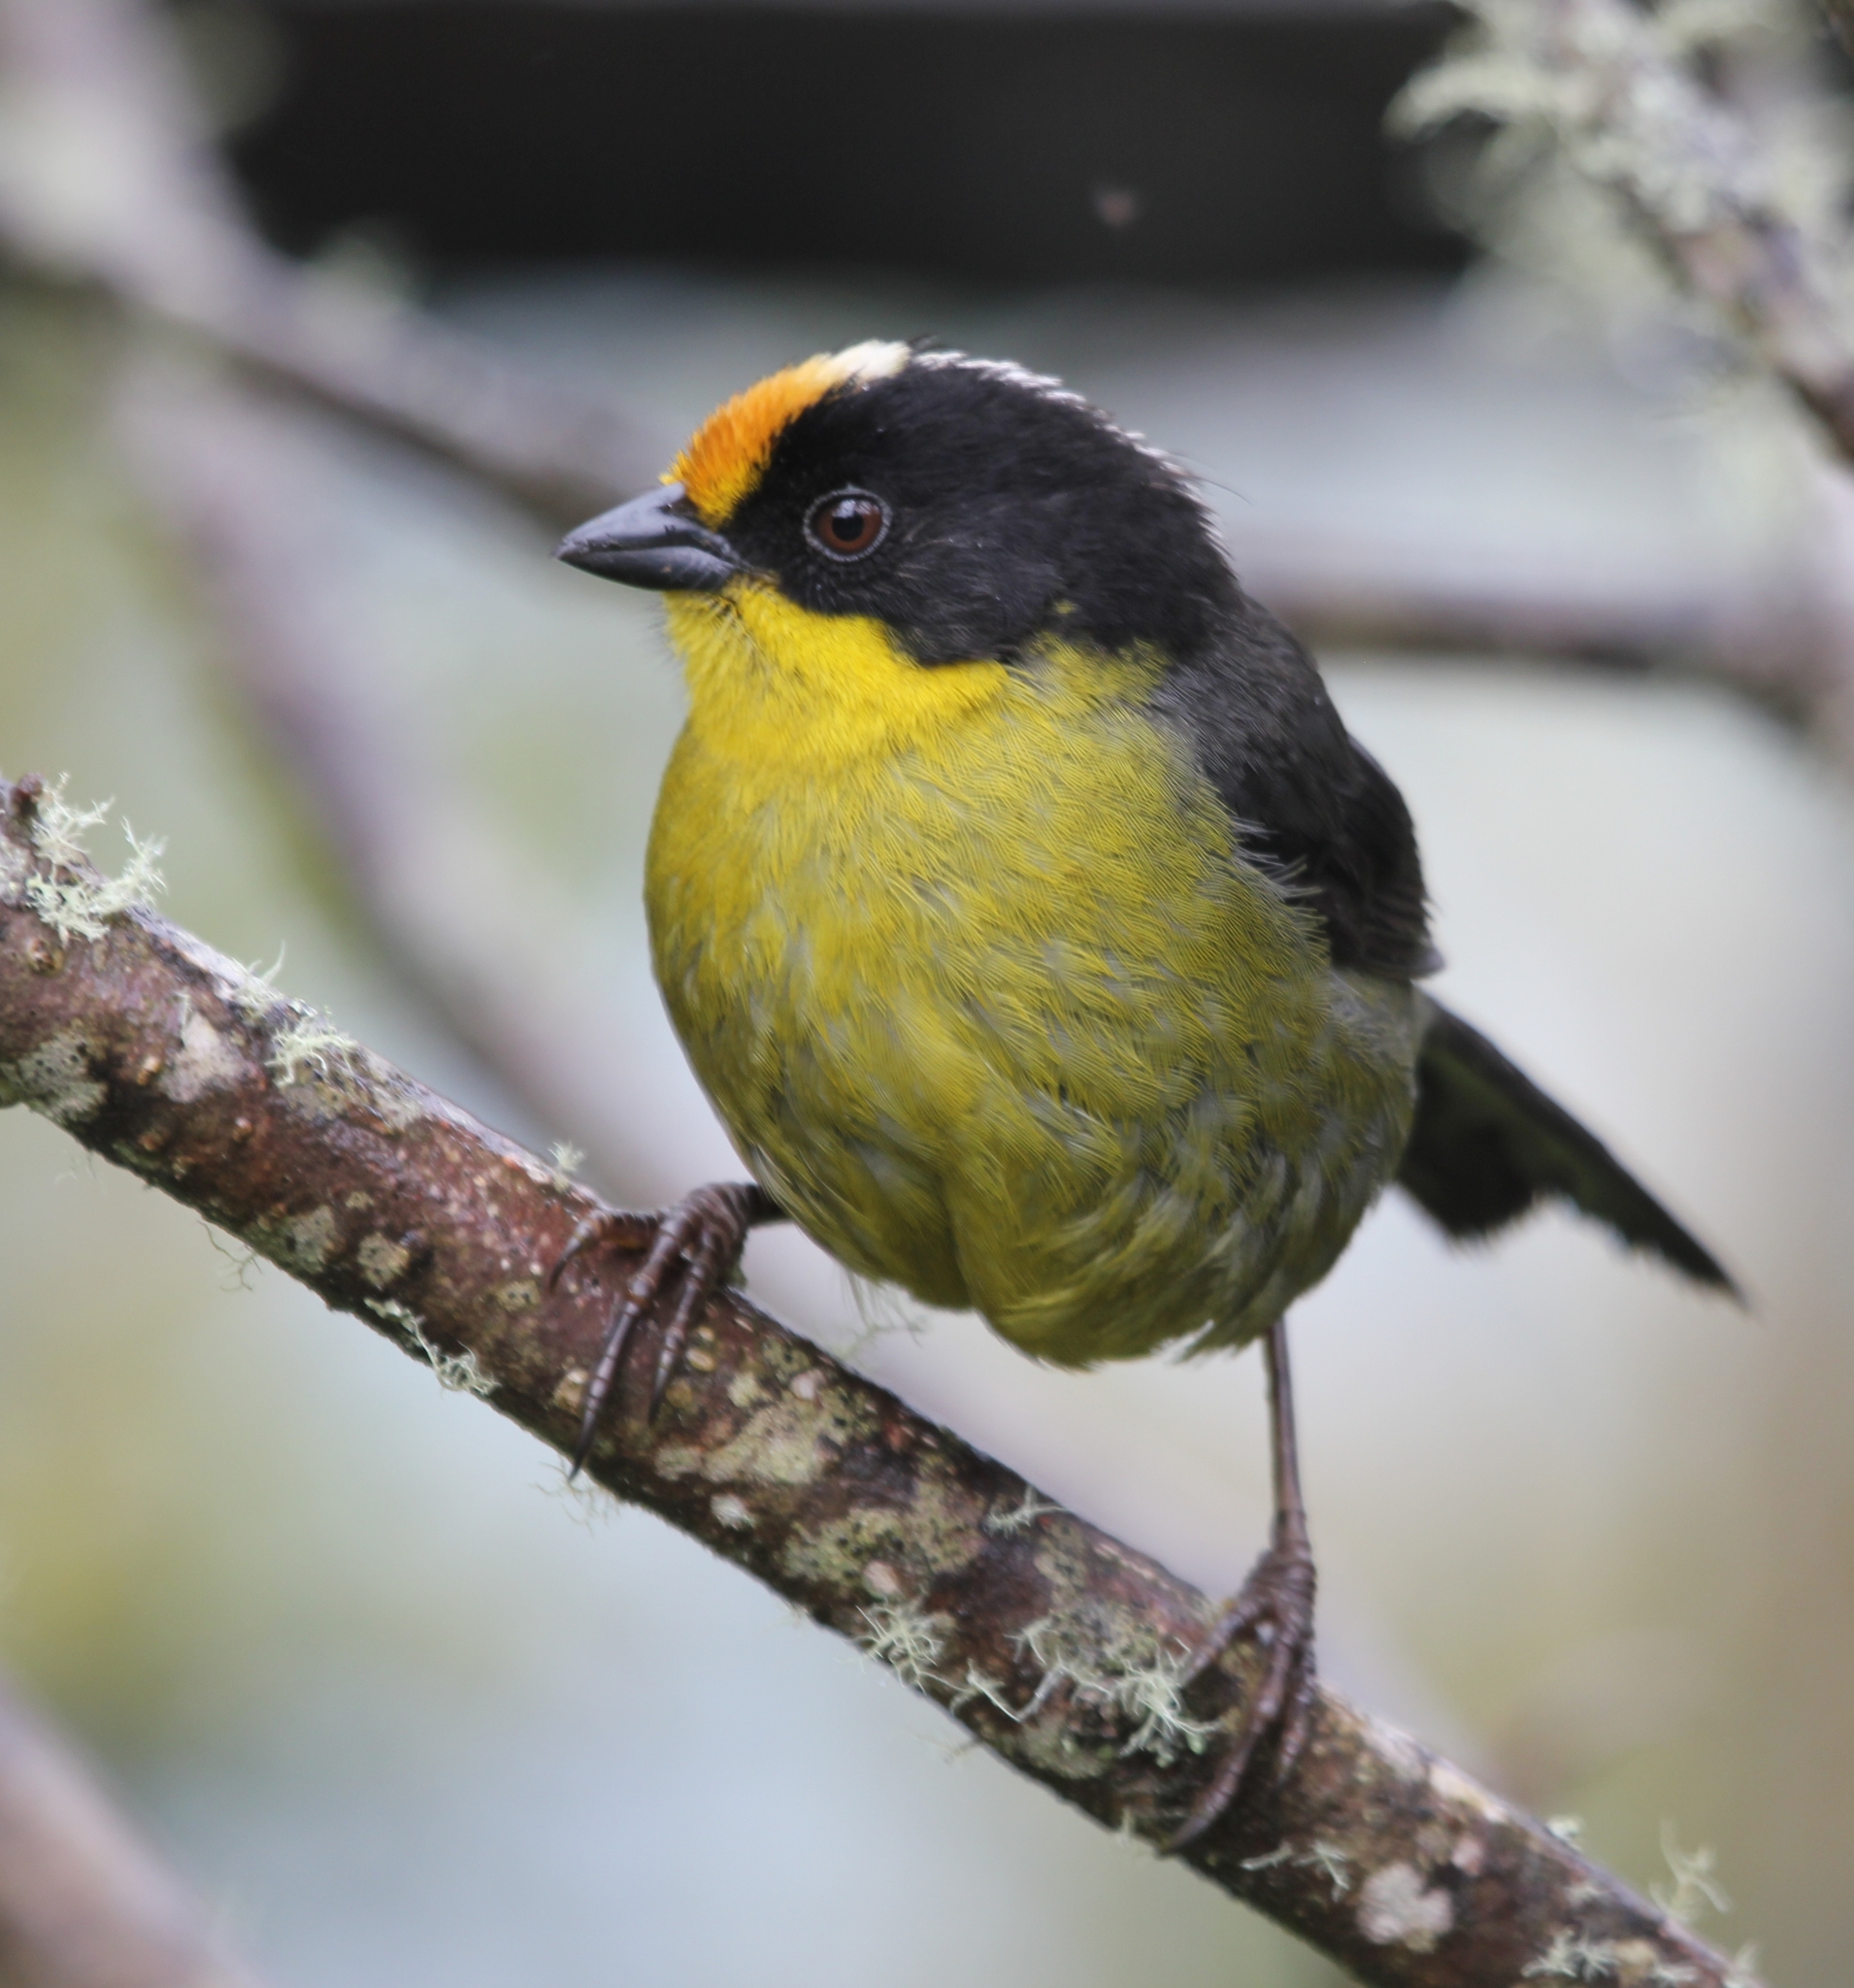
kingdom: Animalia
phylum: Chordata
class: Aves
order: Passeriformes
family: Passerellidae
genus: Atlapetes
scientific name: Atlapetes pallidinucha
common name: Pale-naped brushfinch
